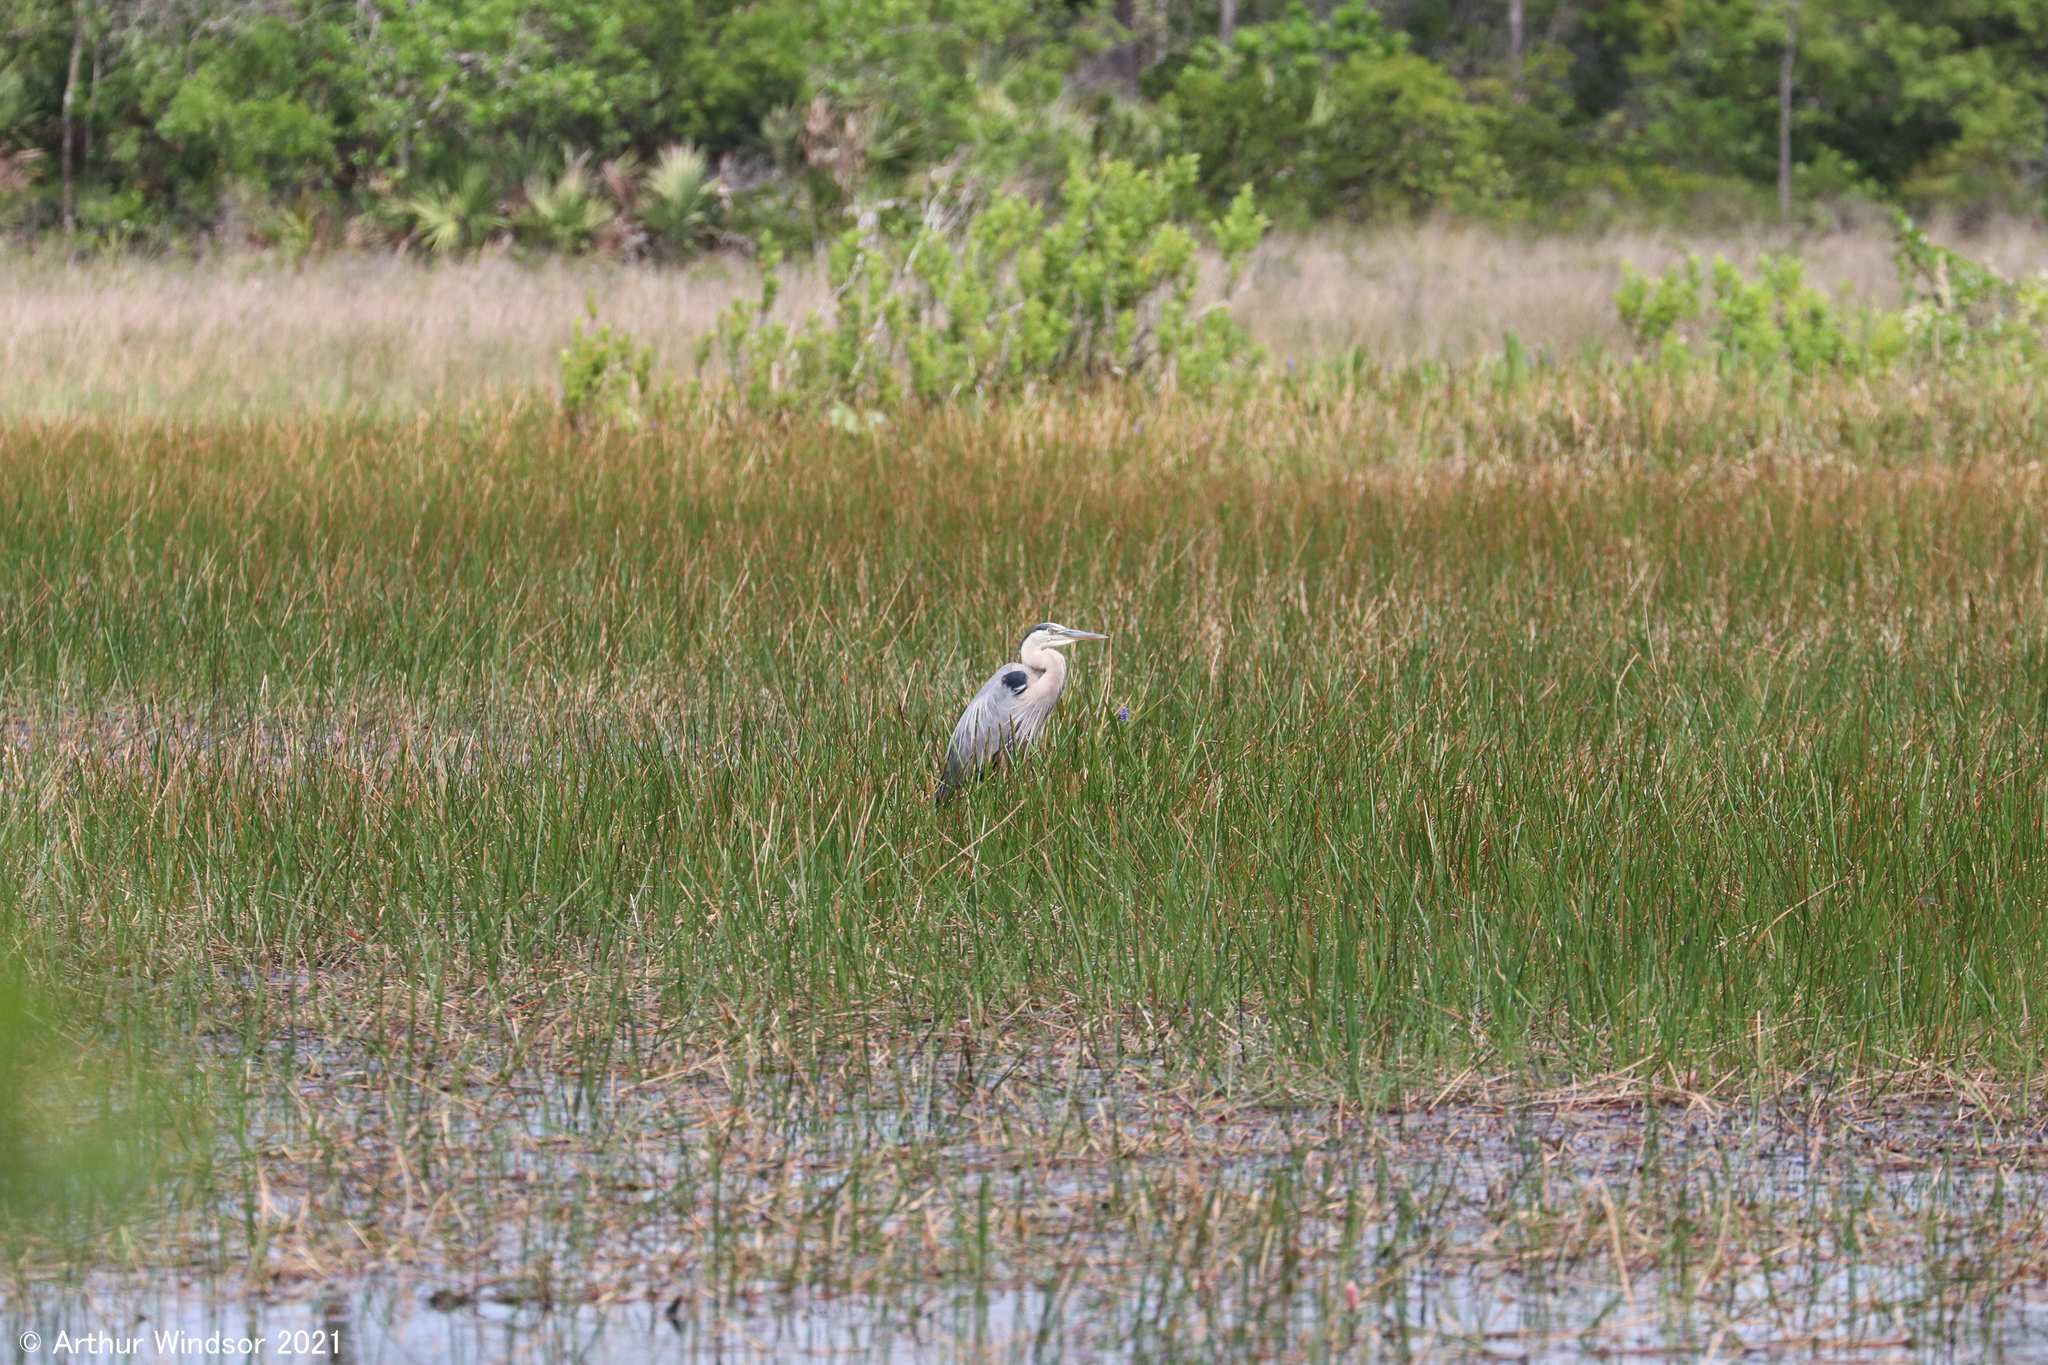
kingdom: Animalia
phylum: Chordata
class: Aves
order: Pelecaniformes
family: Ardeidae
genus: Ardea
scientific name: Ardea herodias
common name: Great blue heron
